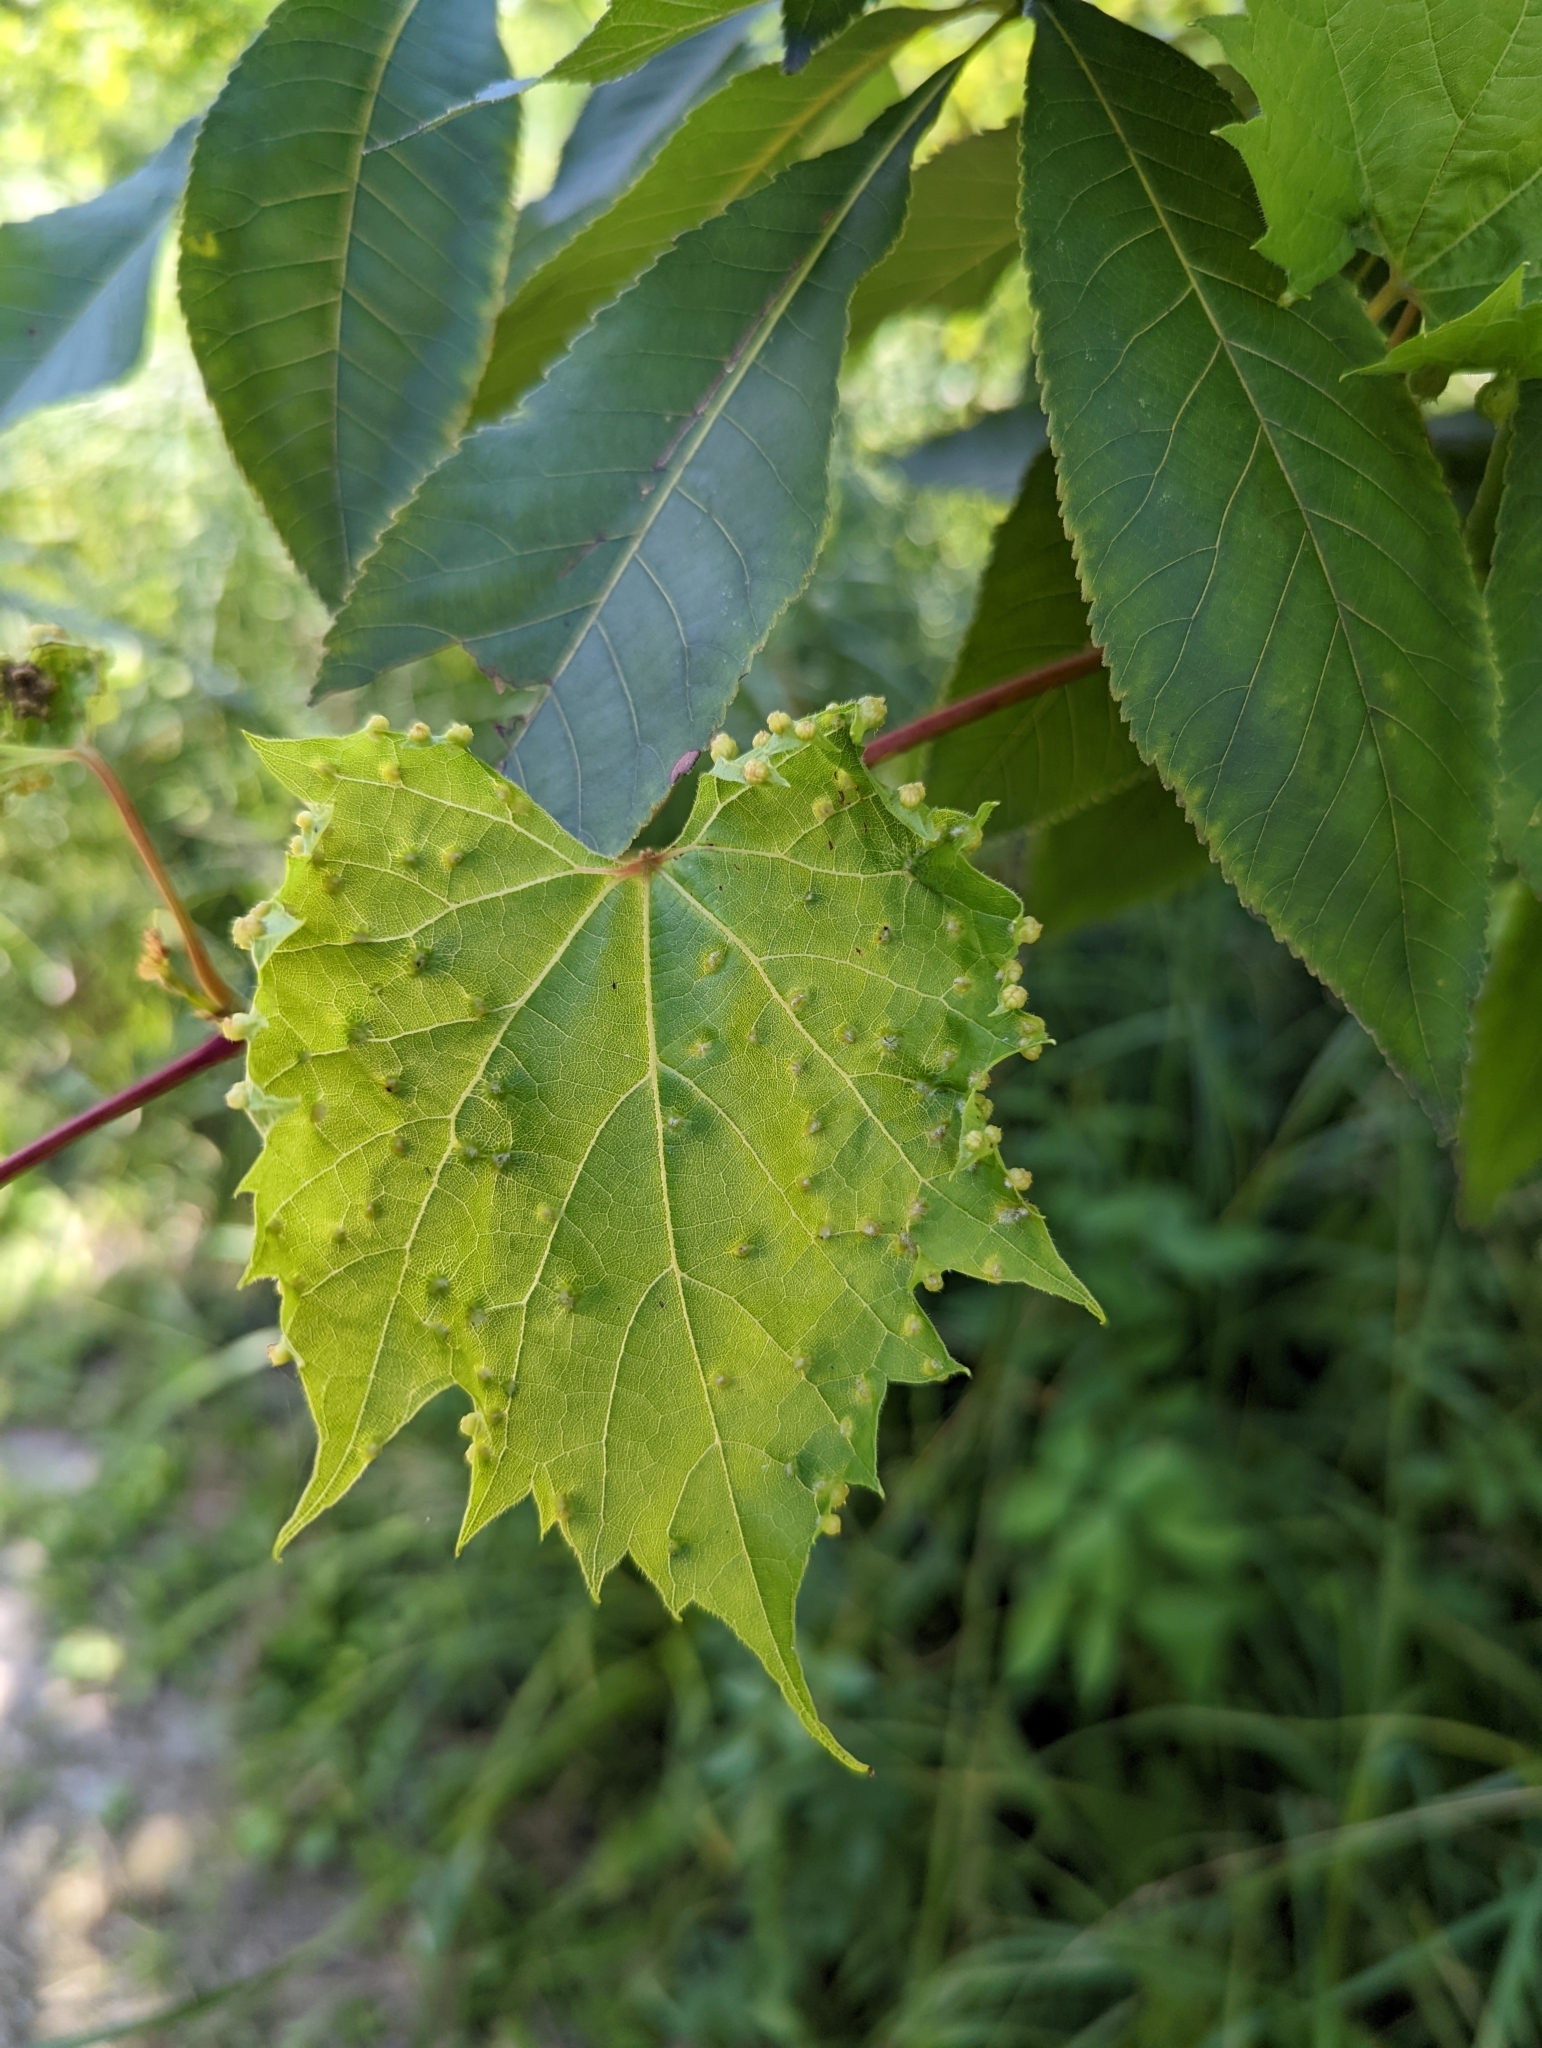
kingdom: Animalia
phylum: Arthropoda
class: Insecta
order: Hemiptera
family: Phylloxeridae
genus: Daktulosphaira
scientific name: Daktulosphaira vitifoliae
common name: Grape phylloxera
